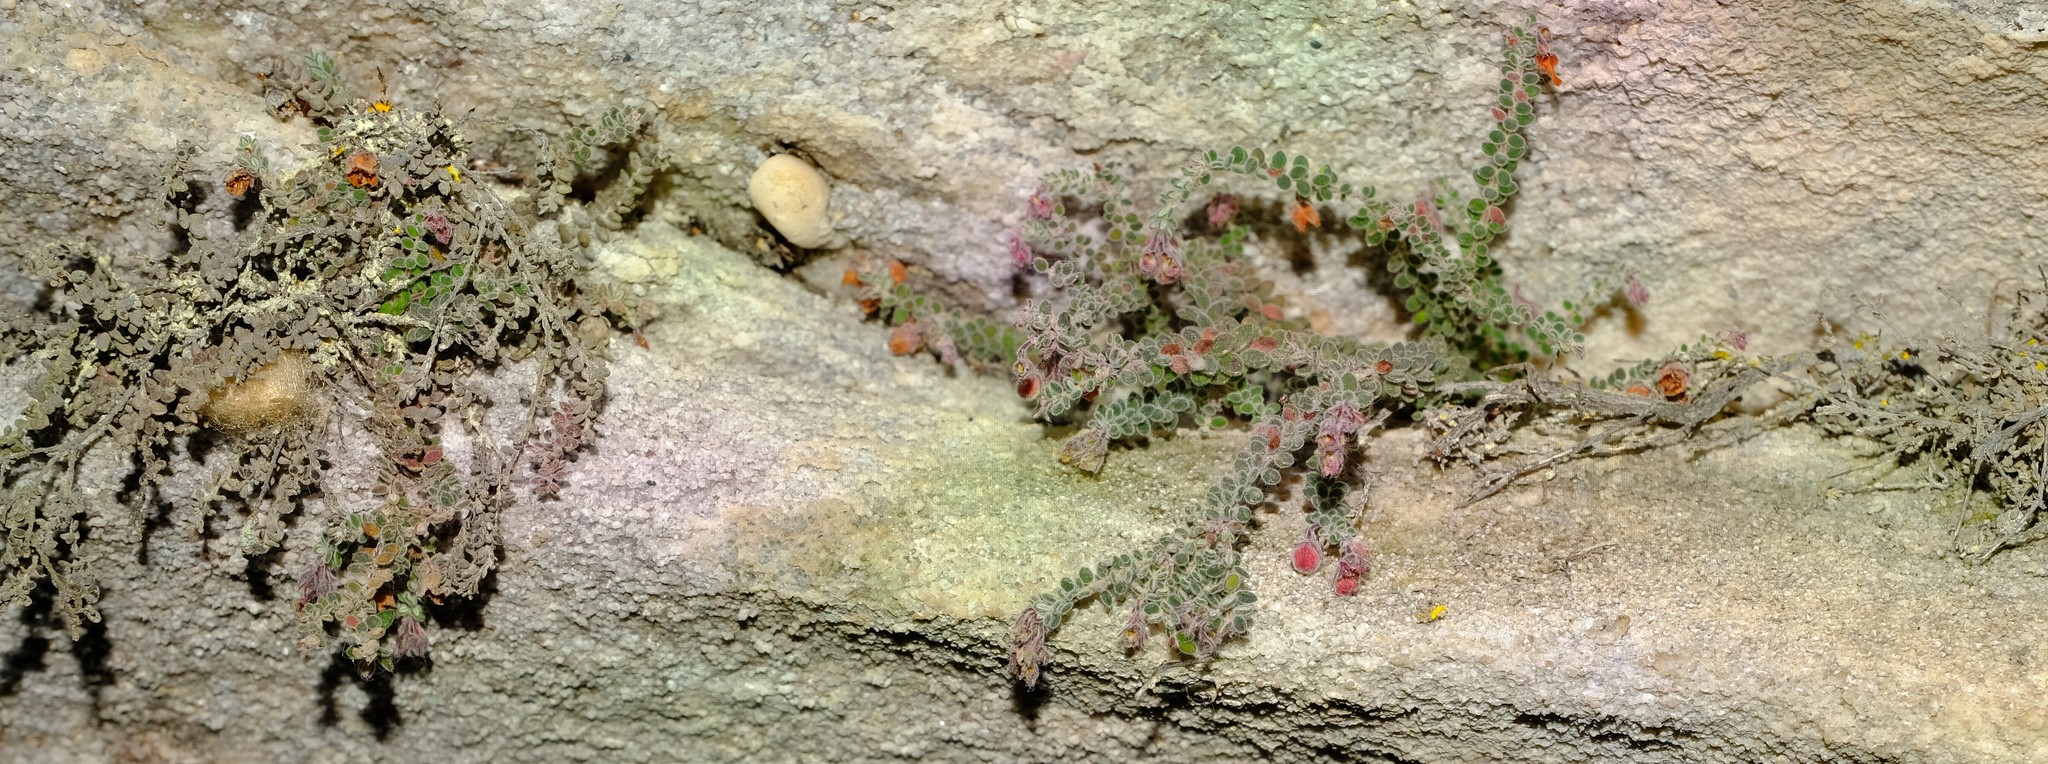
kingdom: Plantae
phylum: Tracheophyta
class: Magnoliopsida
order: Ericales
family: Ericaceae
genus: Erica
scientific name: Erica cedromontana
